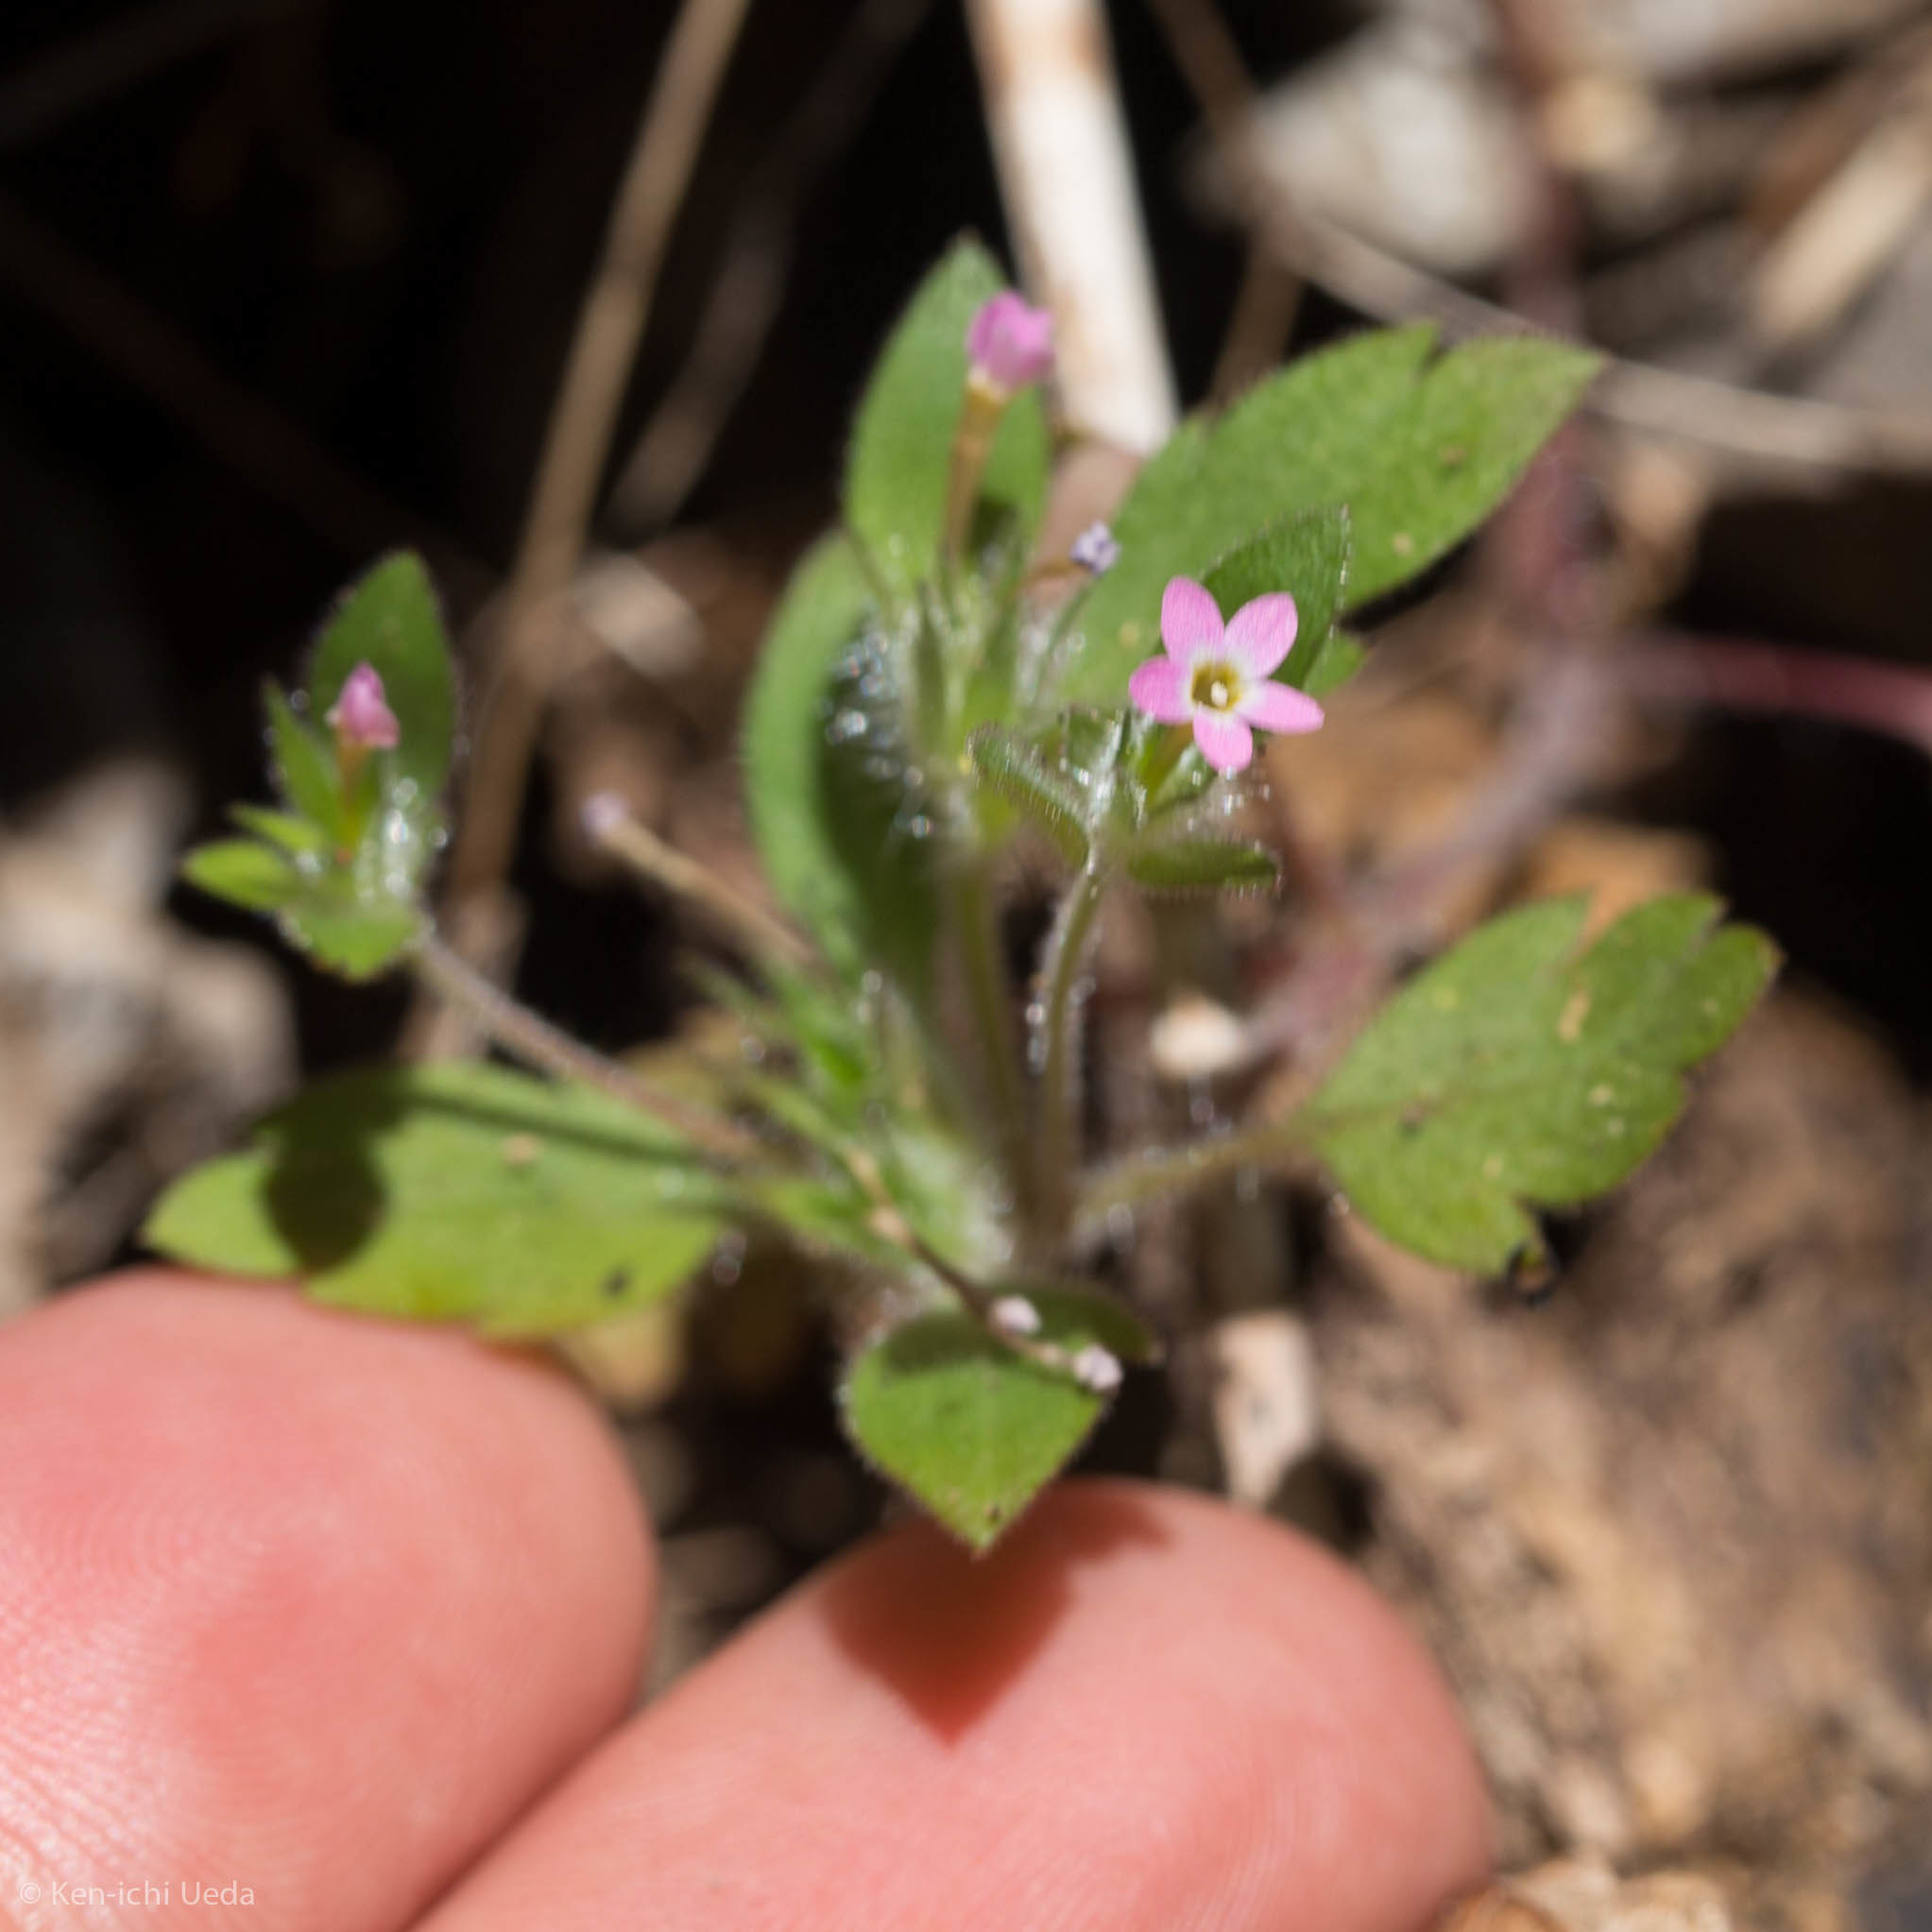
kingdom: Plantae
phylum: Tracheophyta
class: Magnoliopsida
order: Ericales
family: Polemoniaceae
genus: Collomia
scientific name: Collomia heterophylla
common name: Variable-leaved collomia
